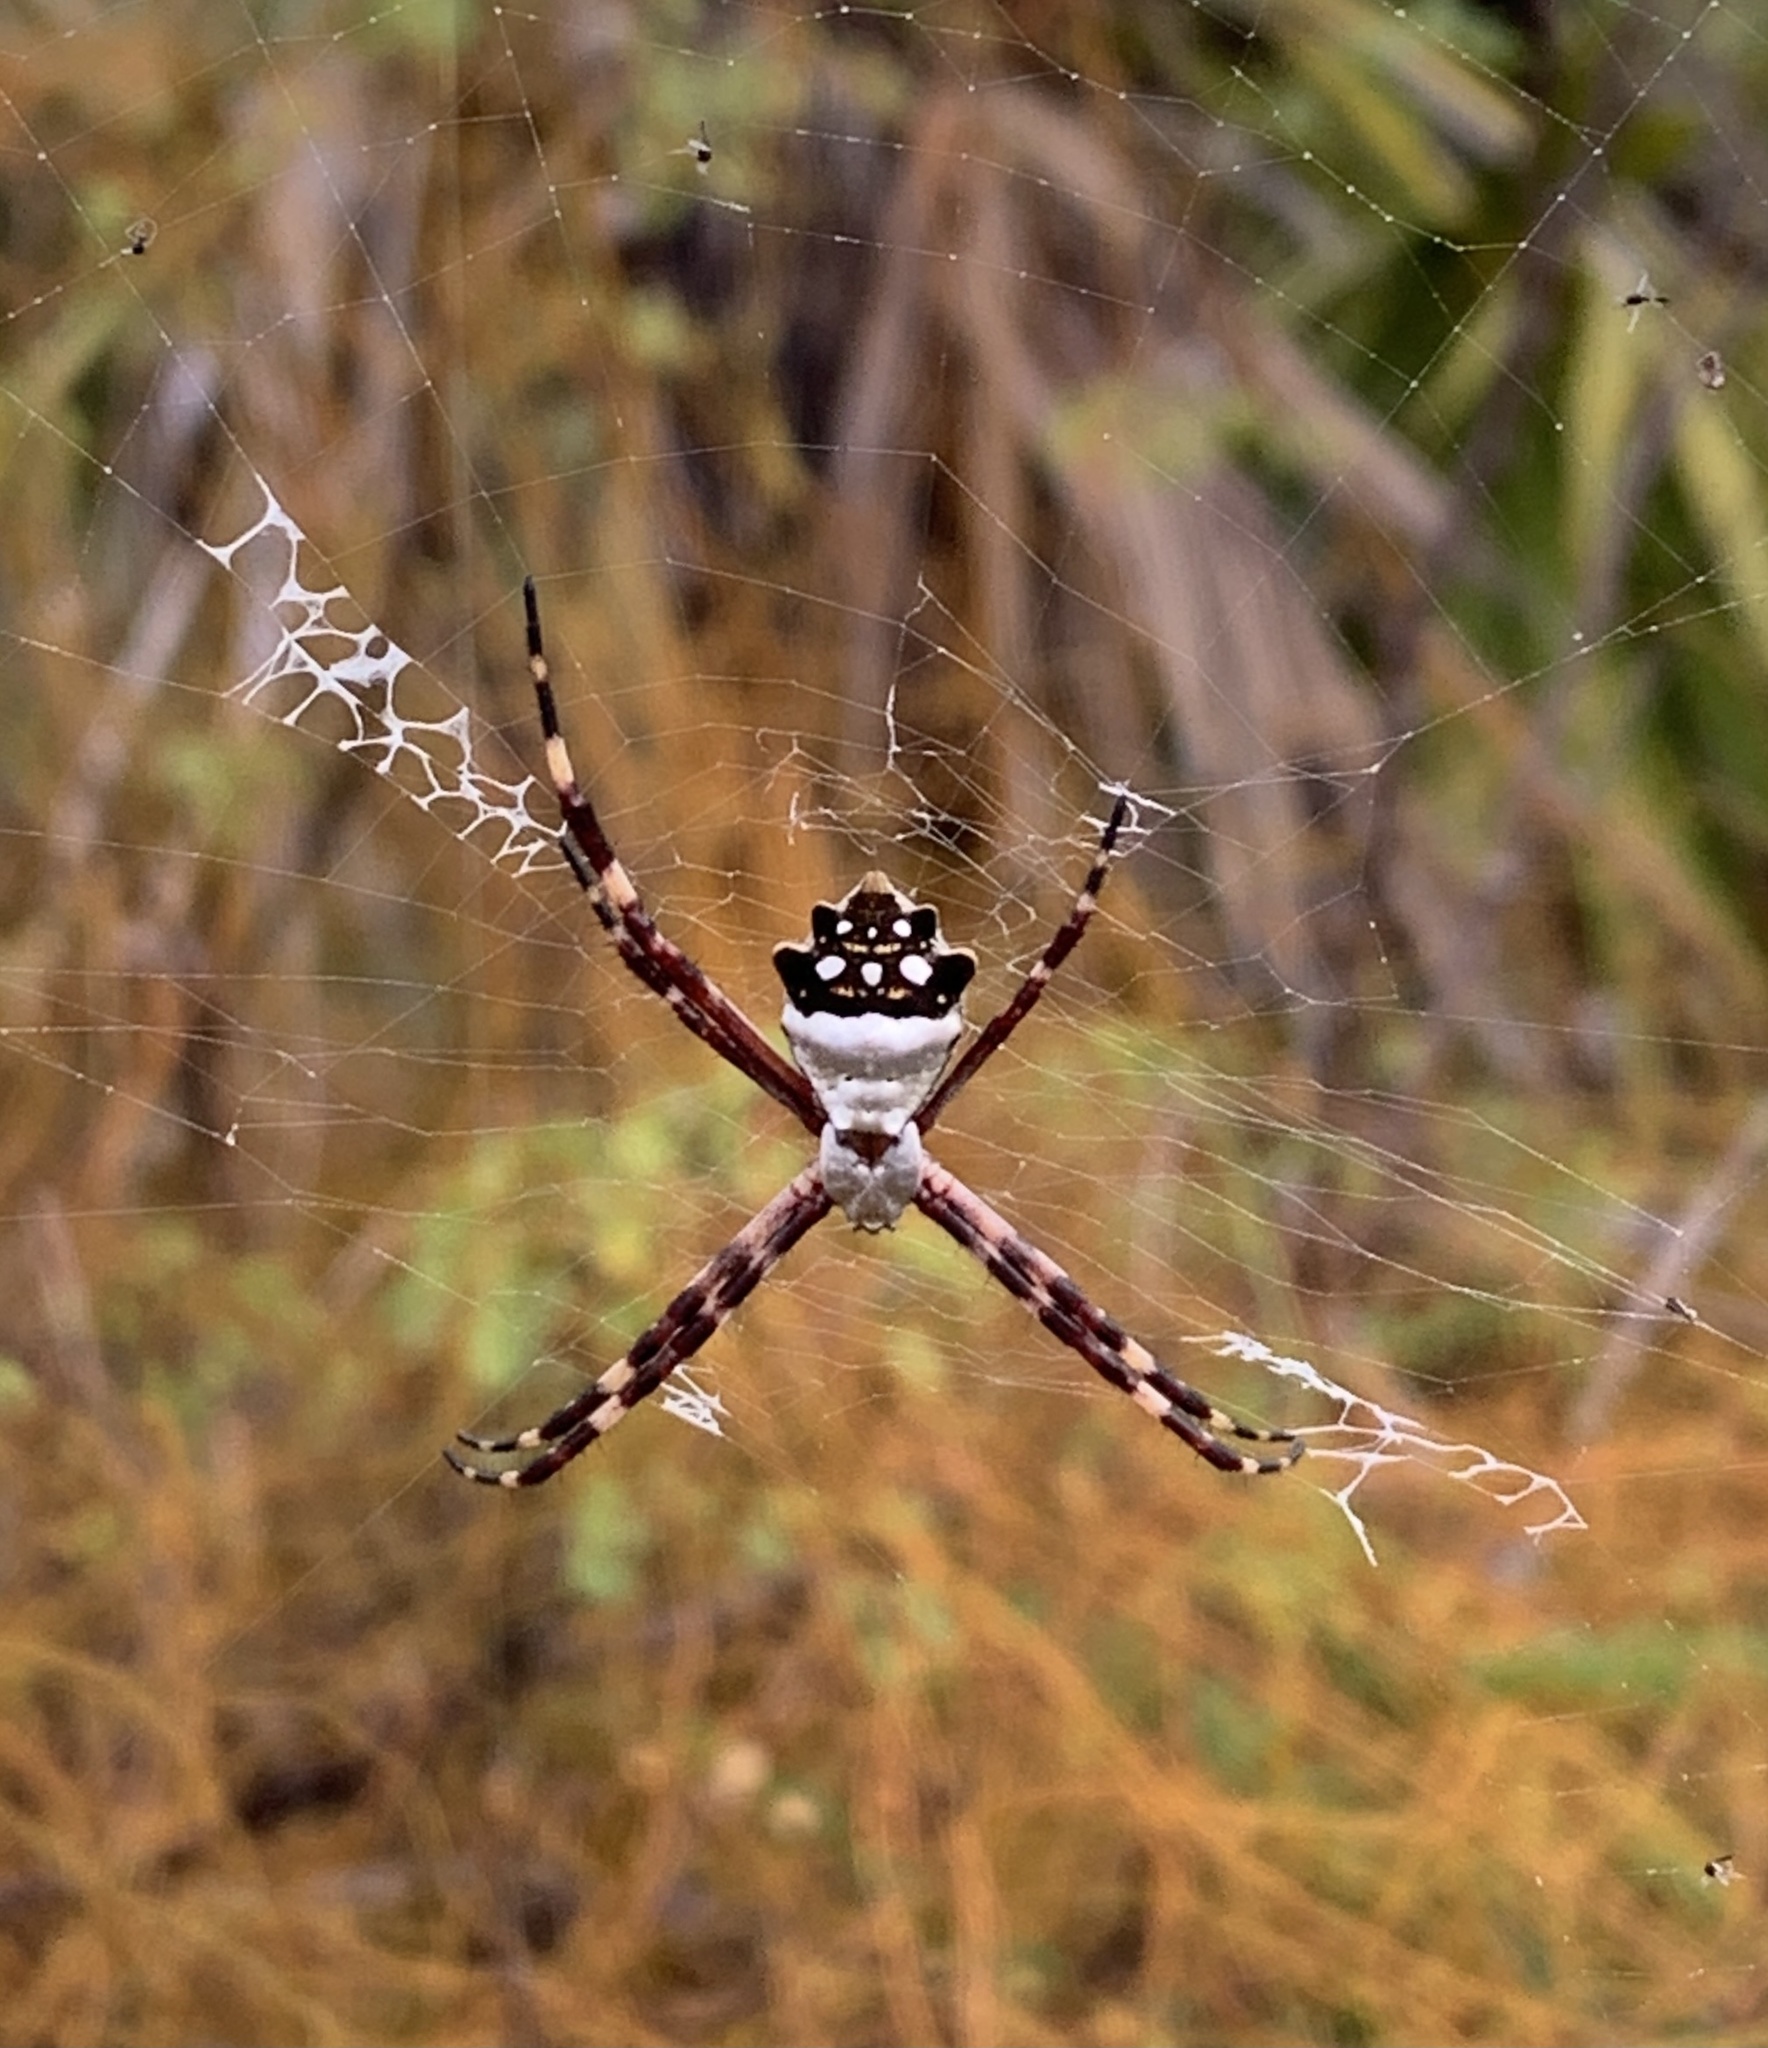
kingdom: Animalia
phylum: Arthropoda
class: Arachnida
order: Araneae
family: Araneidae
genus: Argiope
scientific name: Argiope argentata
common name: Orb weavers
